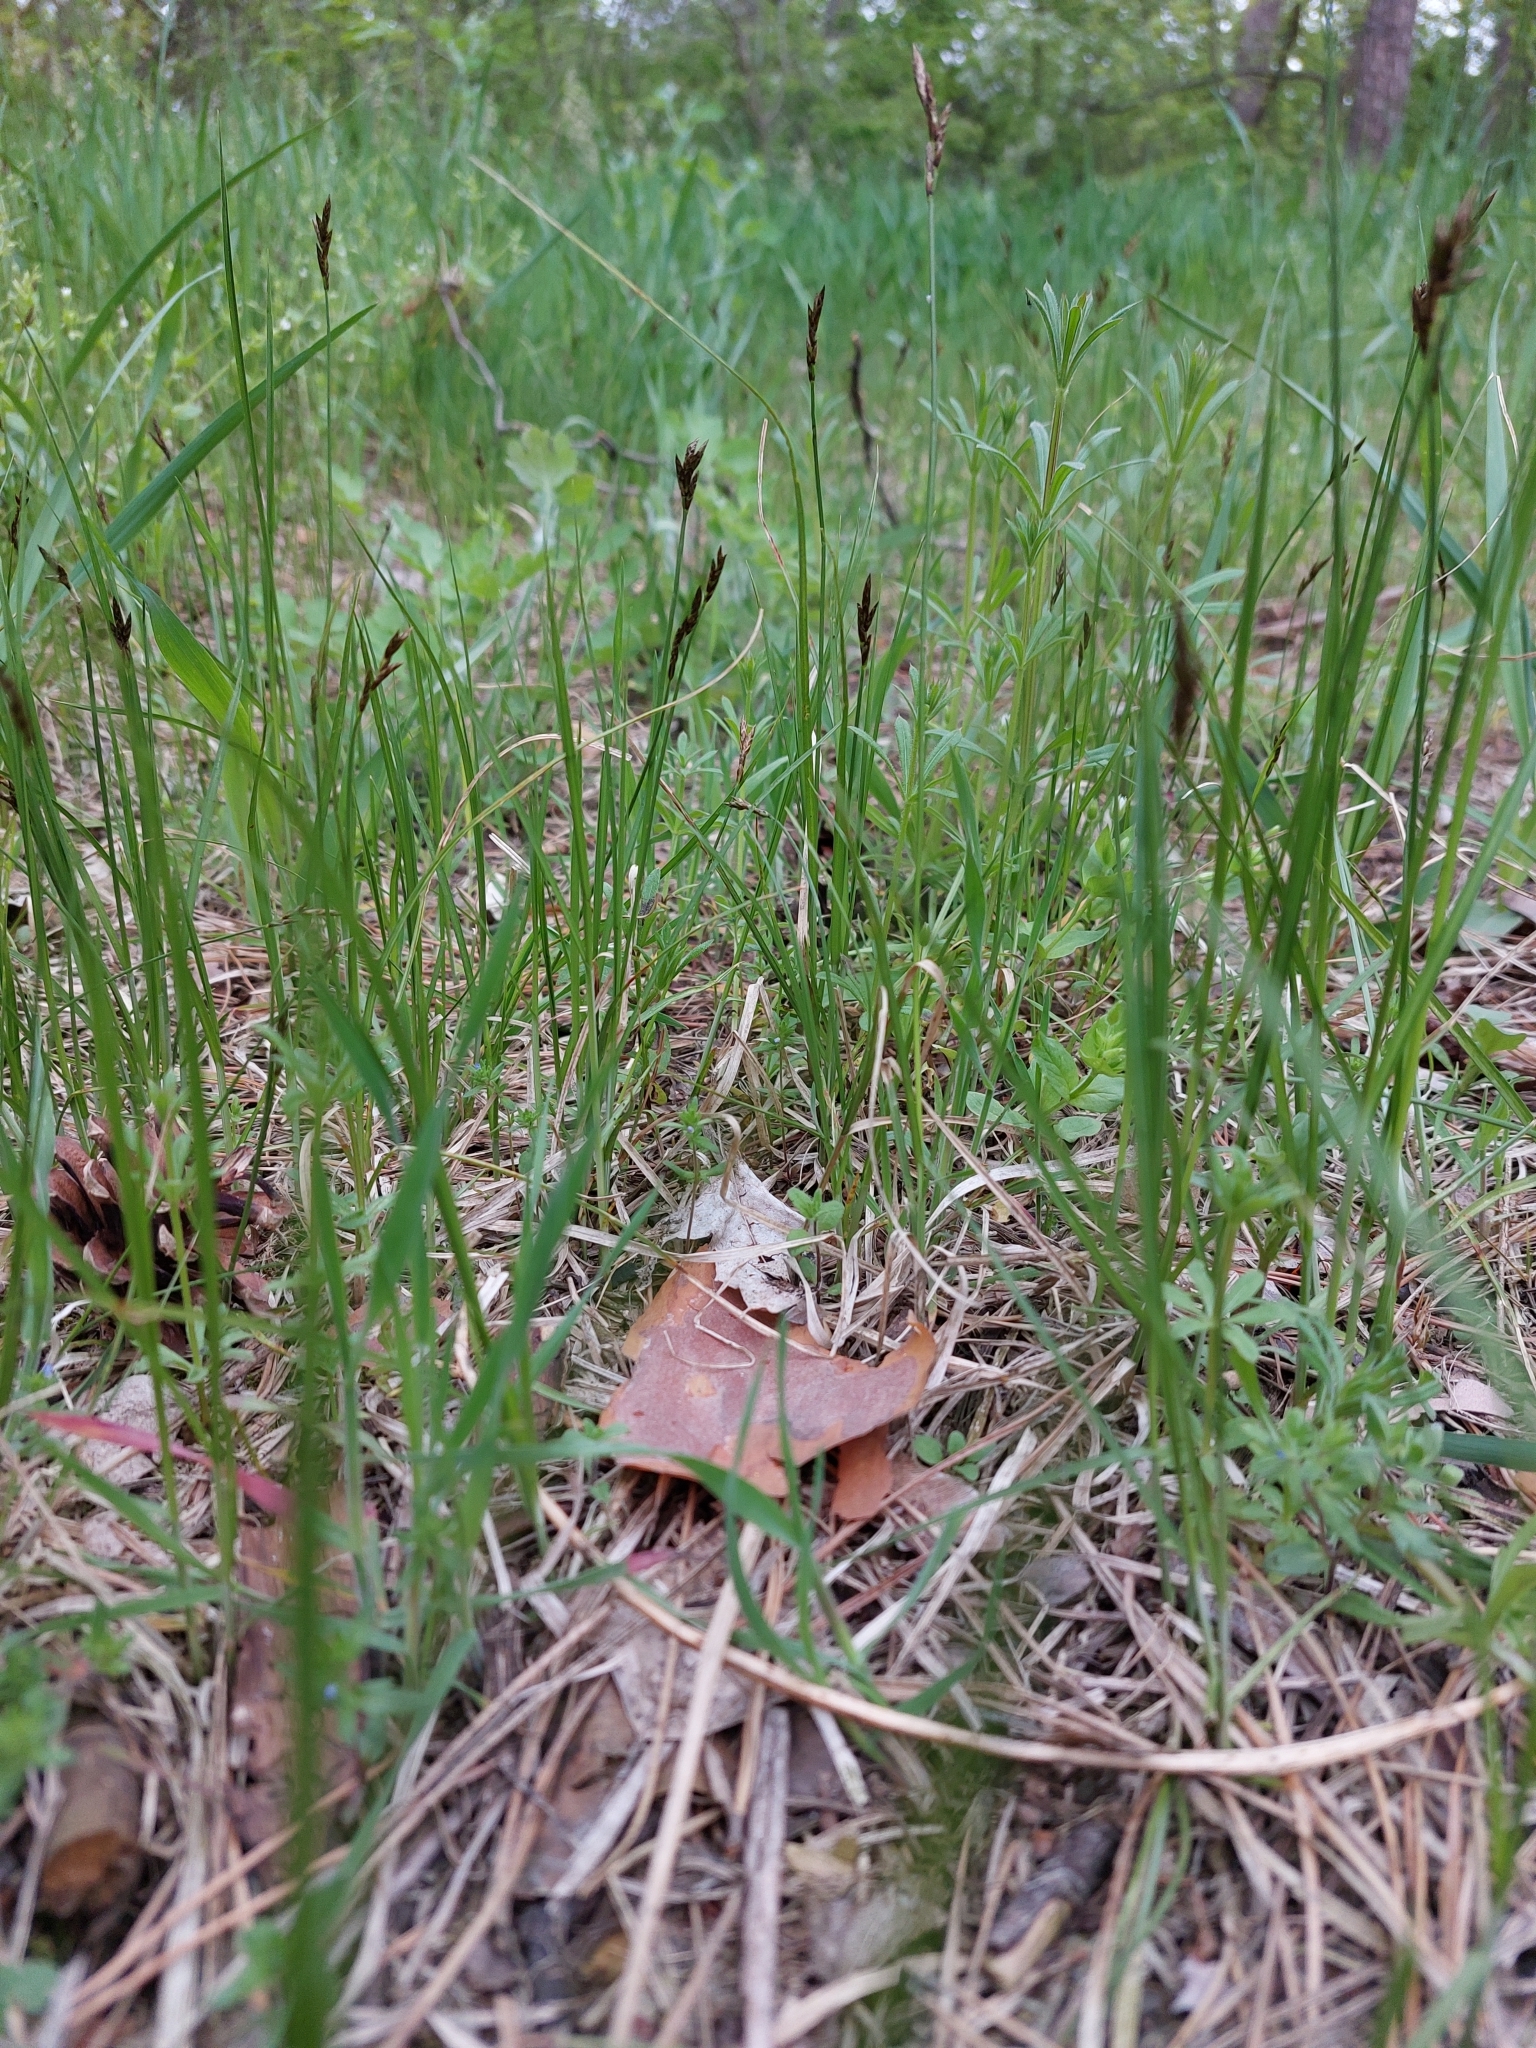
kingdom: Plantae
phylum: Tracheophyta
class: Liliopsida
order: Poales
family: Cyperaceae
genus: Carex
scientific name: Carex praecox
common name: Early sedge
